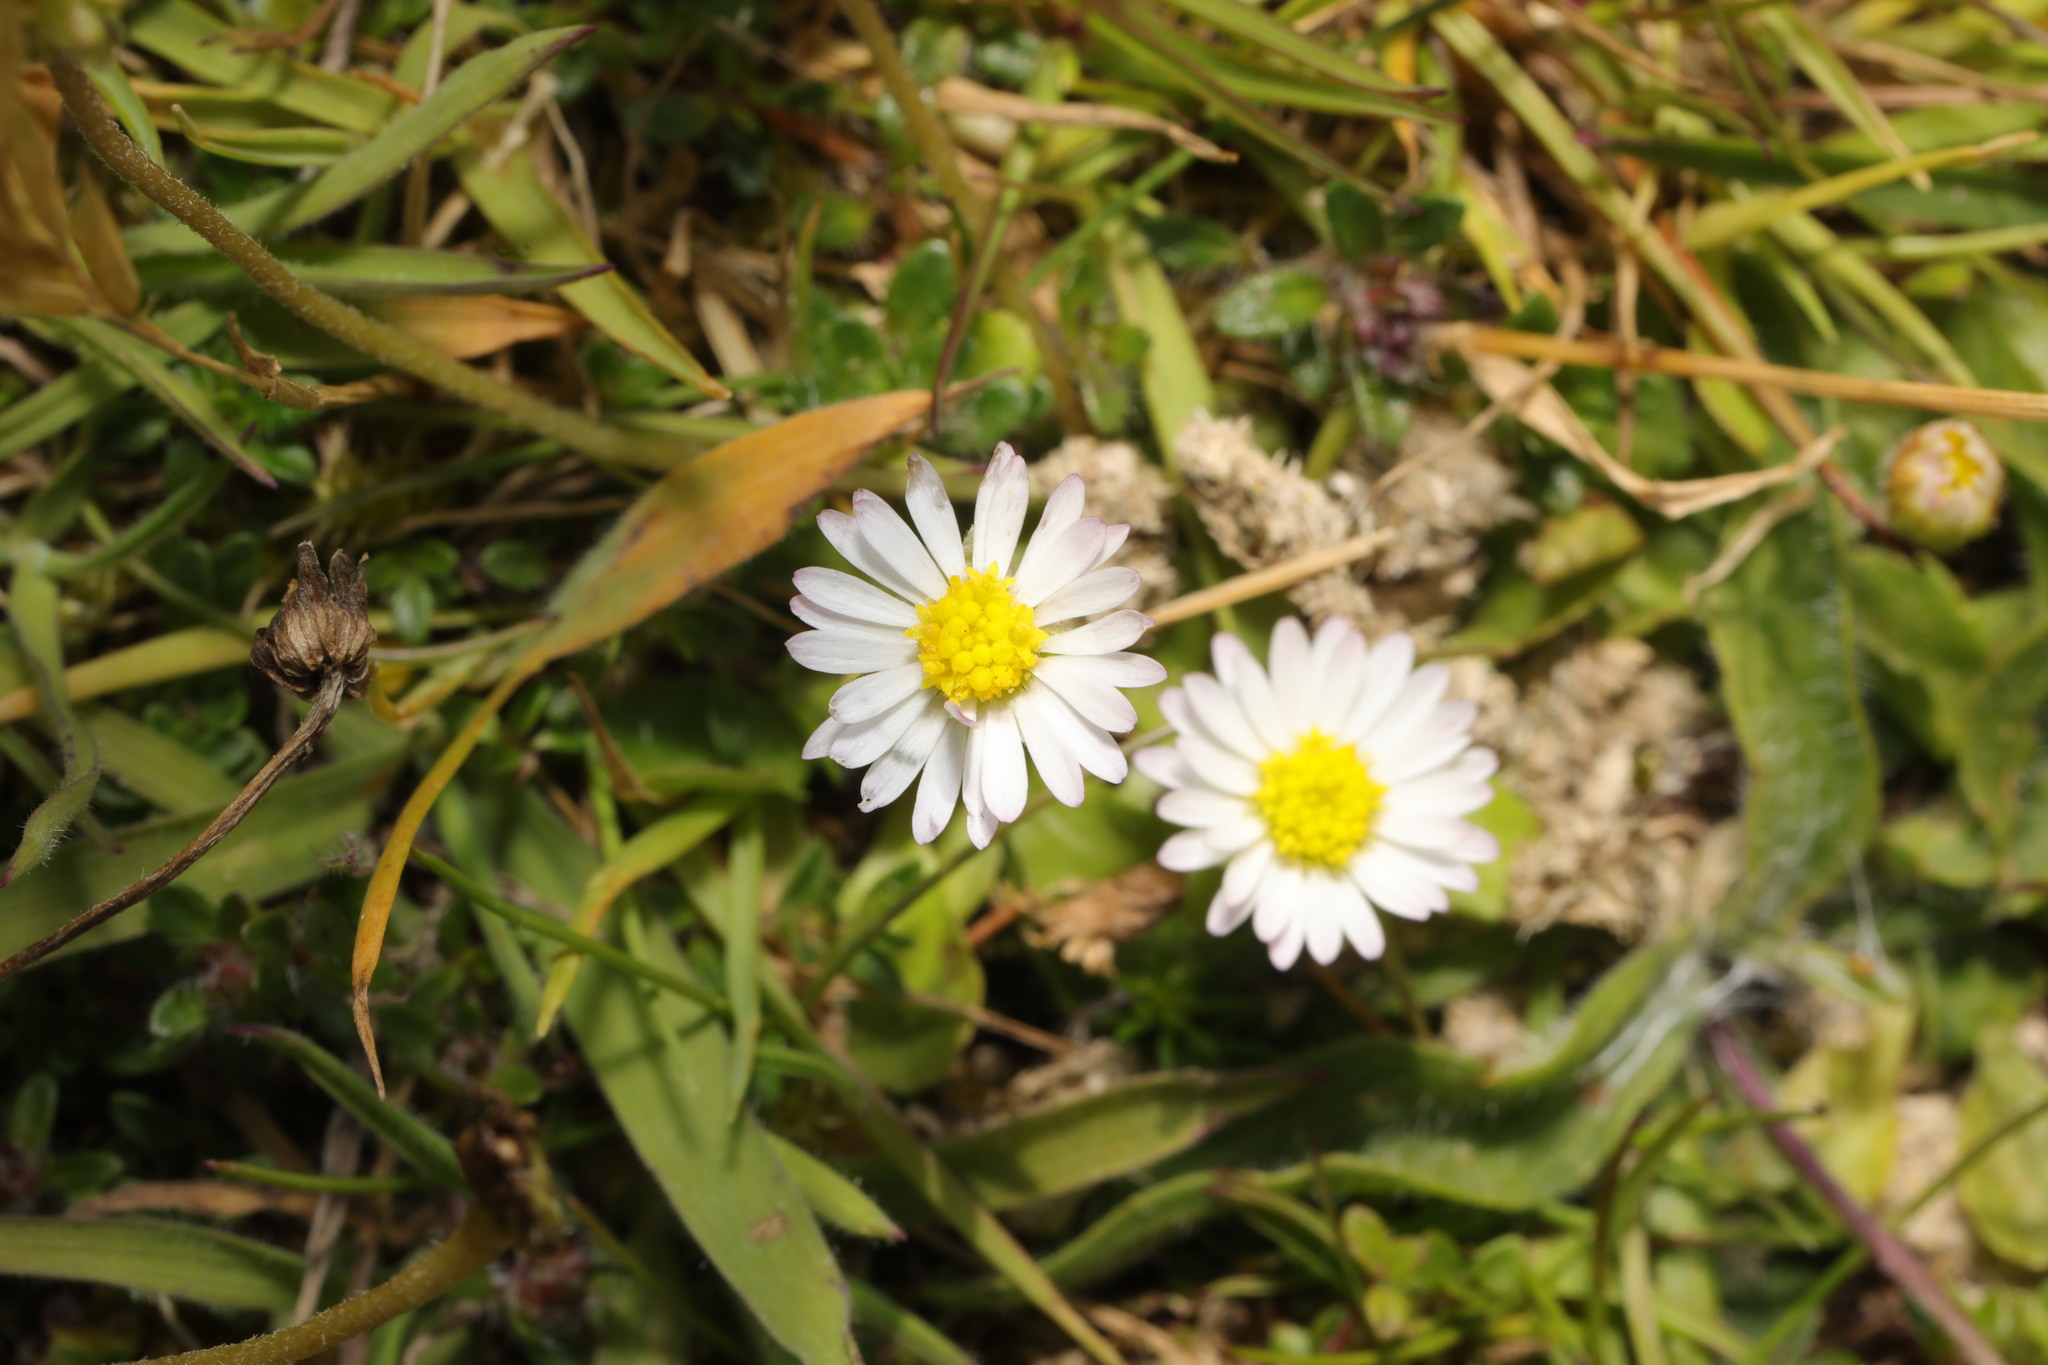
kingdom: Plantae
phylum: Tracheophyta
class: Magnoliopsida
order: Asterales
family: Asteraceae
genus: Bellis
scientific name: Bellis perennis
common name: Lawndaisy
